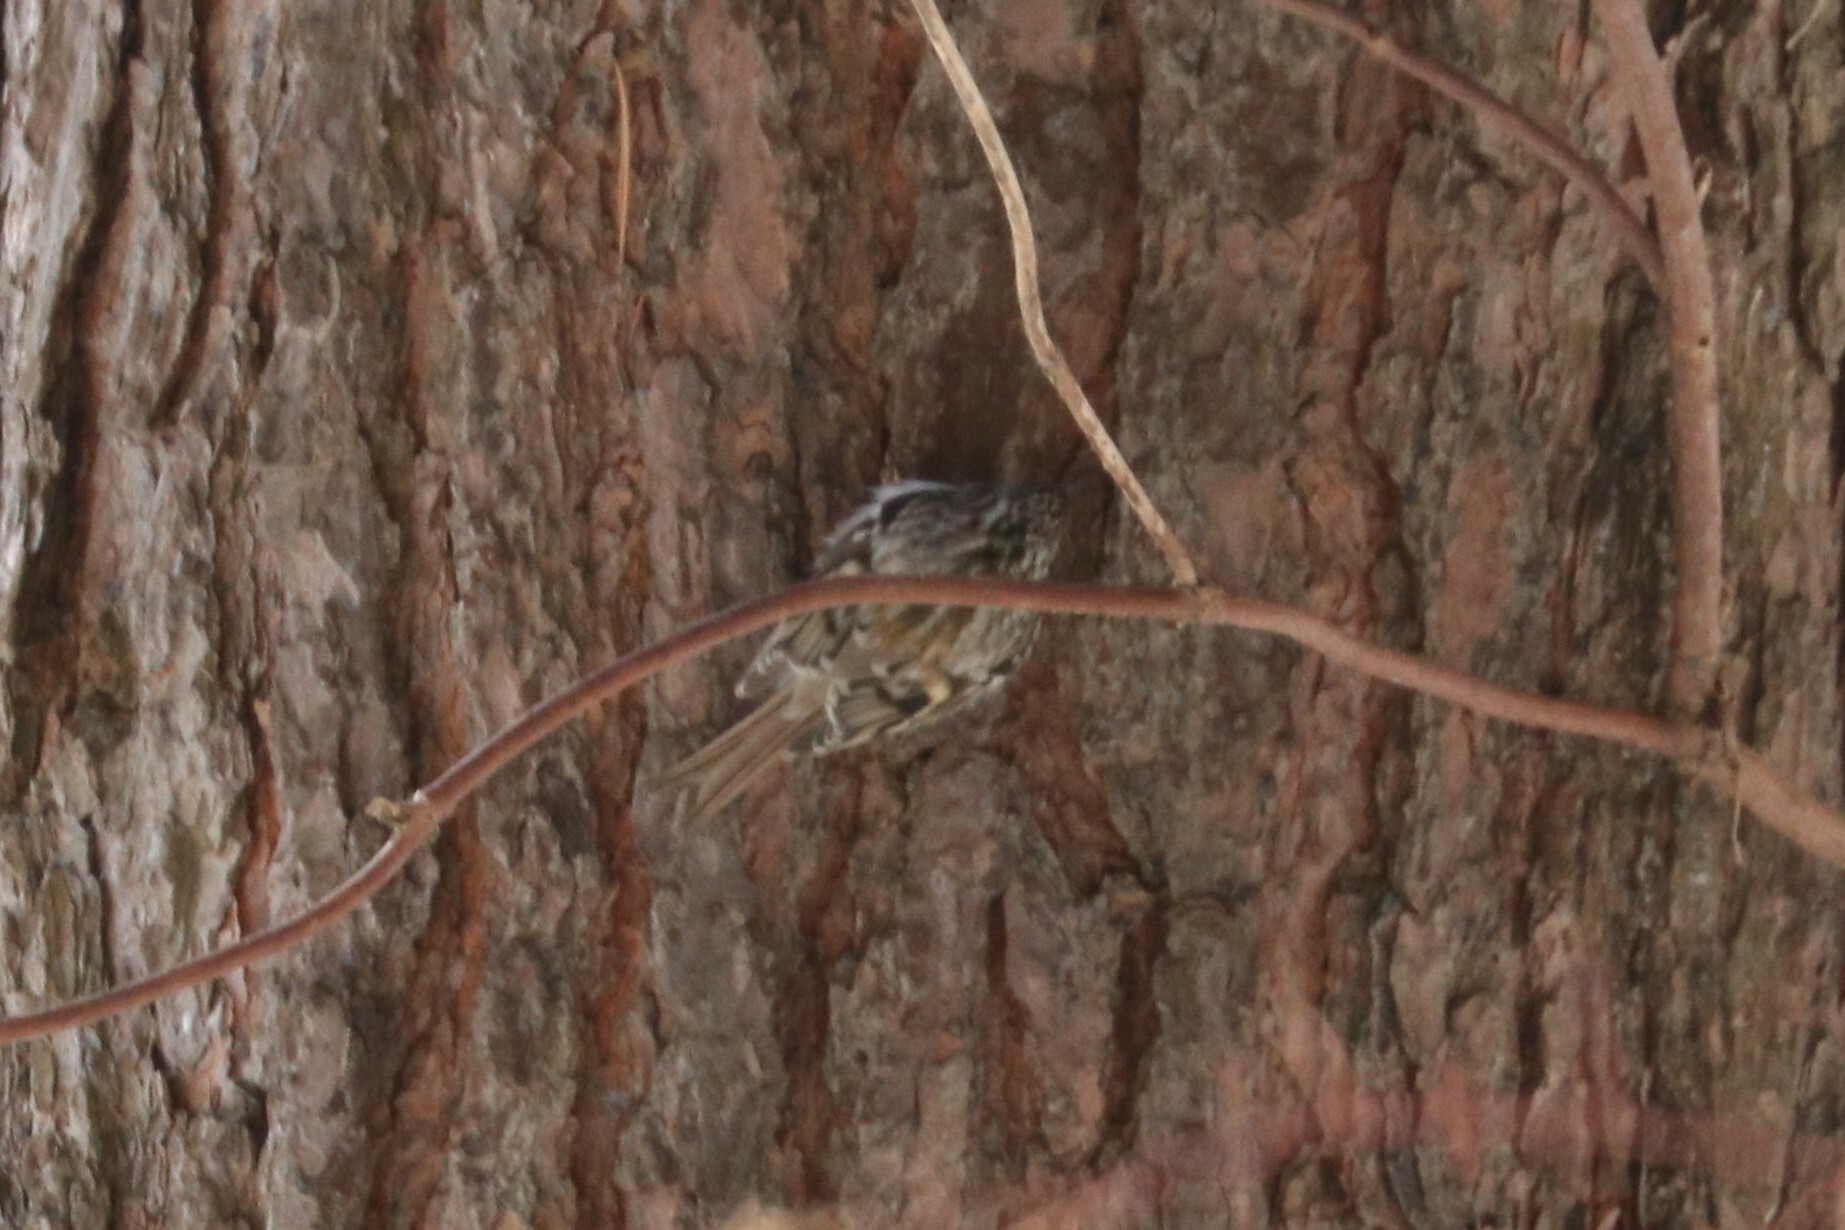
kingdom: Animalia
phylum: Chordata
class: Aves
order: Passeriformes
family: Certhiidae
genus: Certhia
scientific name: Certhia familiaris
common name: Eurasian treecreeper
